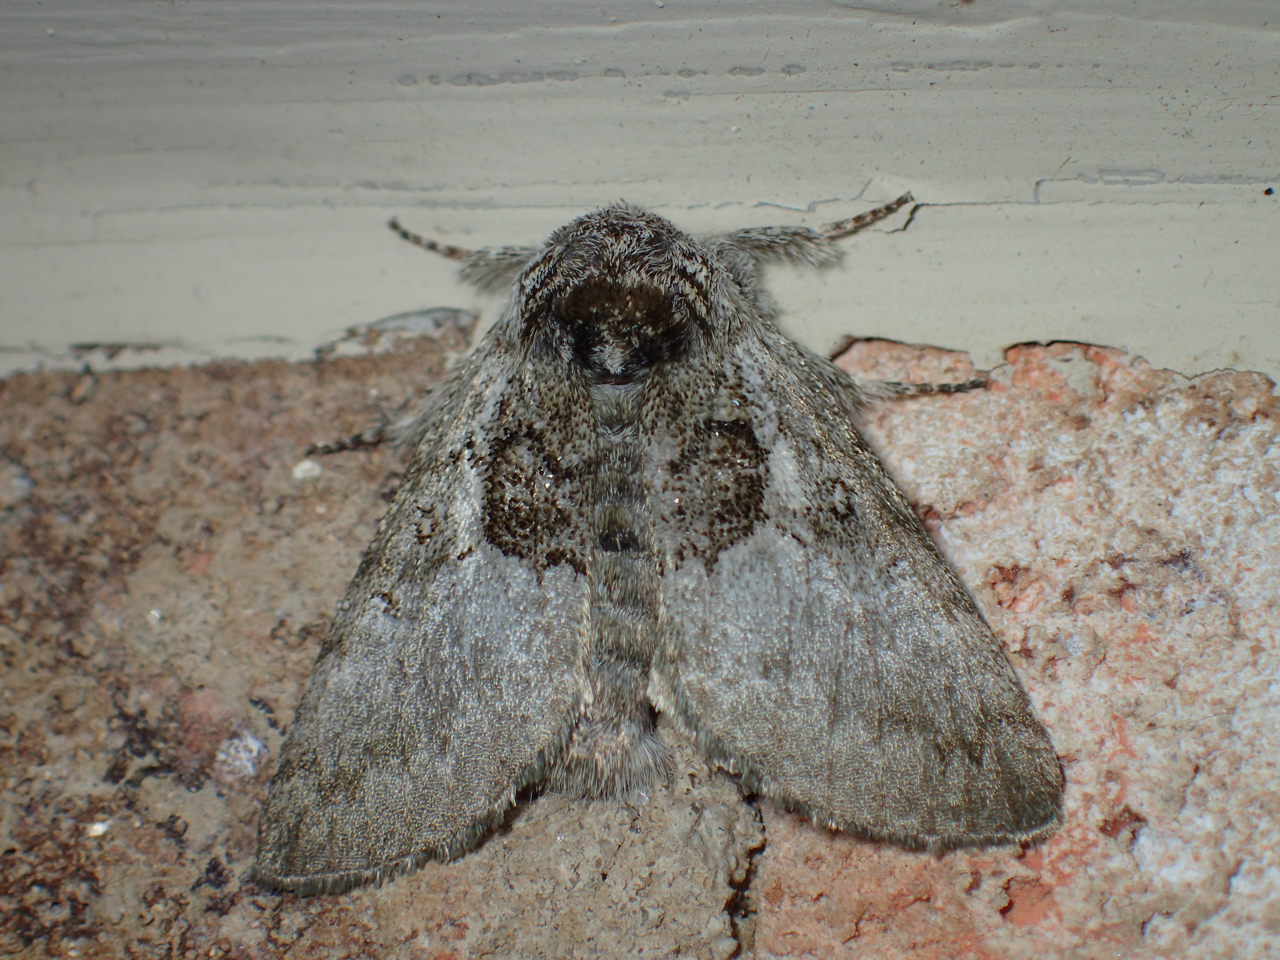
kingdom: Animalia
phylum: Arthropoda
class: Insecta
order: Lepidoptera
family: Noctuidae
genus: Colocasia
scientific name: Colocasia flavicornis
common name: Saddled yellowhorn
